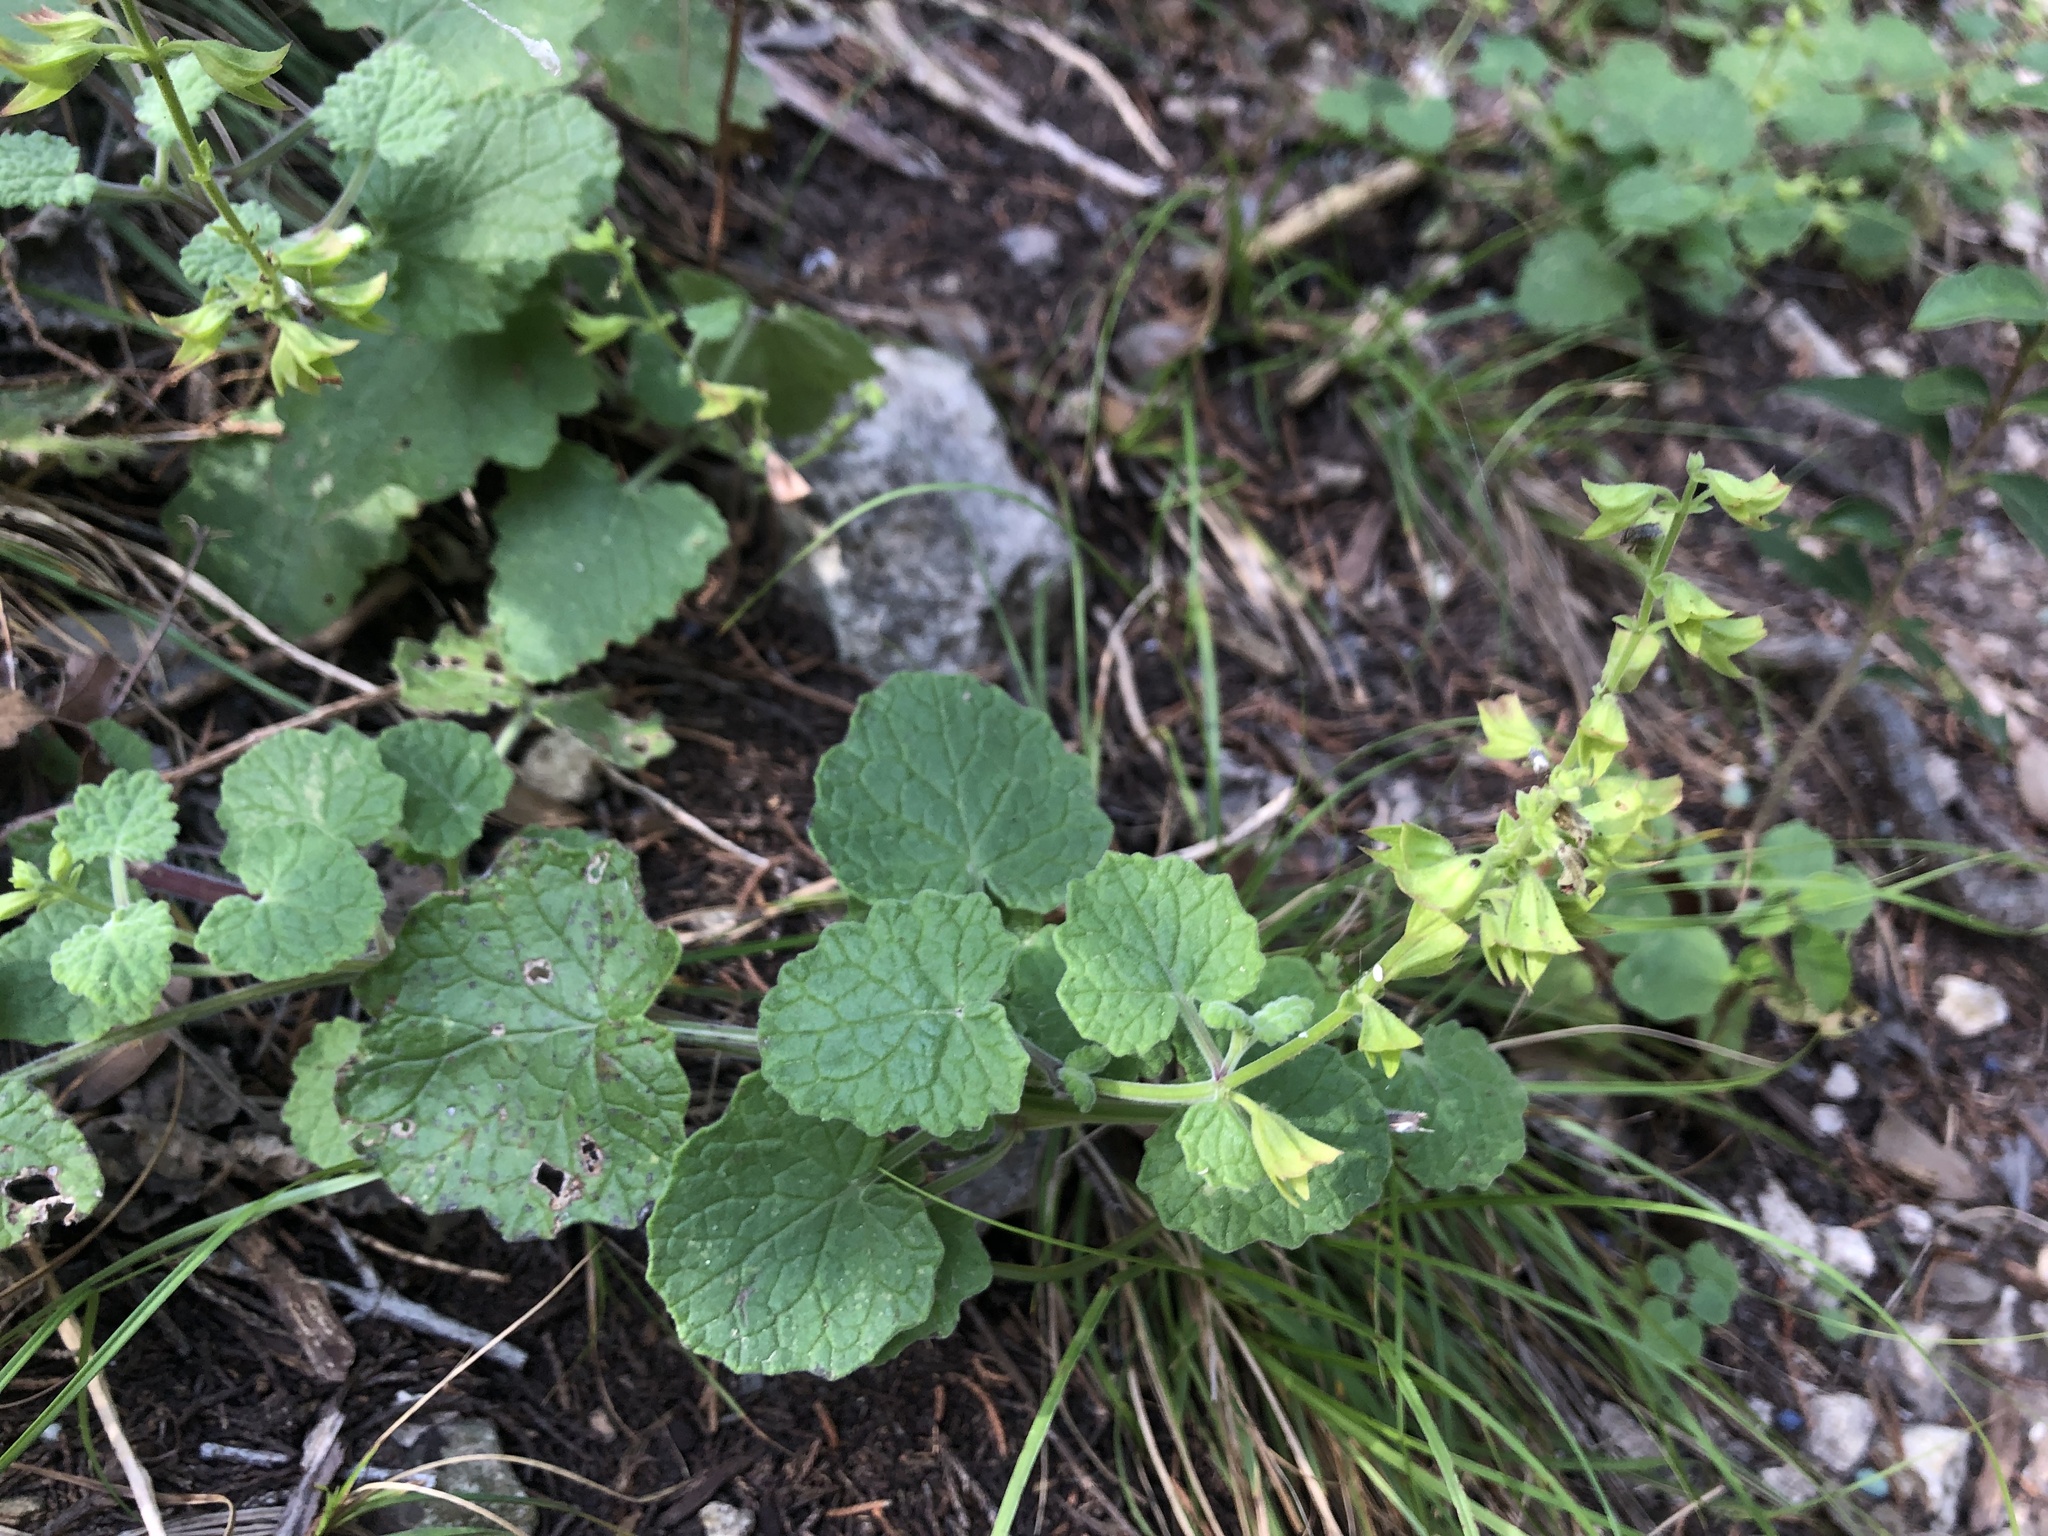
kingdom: Plantae
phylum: Tracheophyta
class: Magnoliopsida
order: Lamiales
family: Lamiaceae
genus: Salvia
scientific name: Salvia roemeriana
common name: Cedar sage
